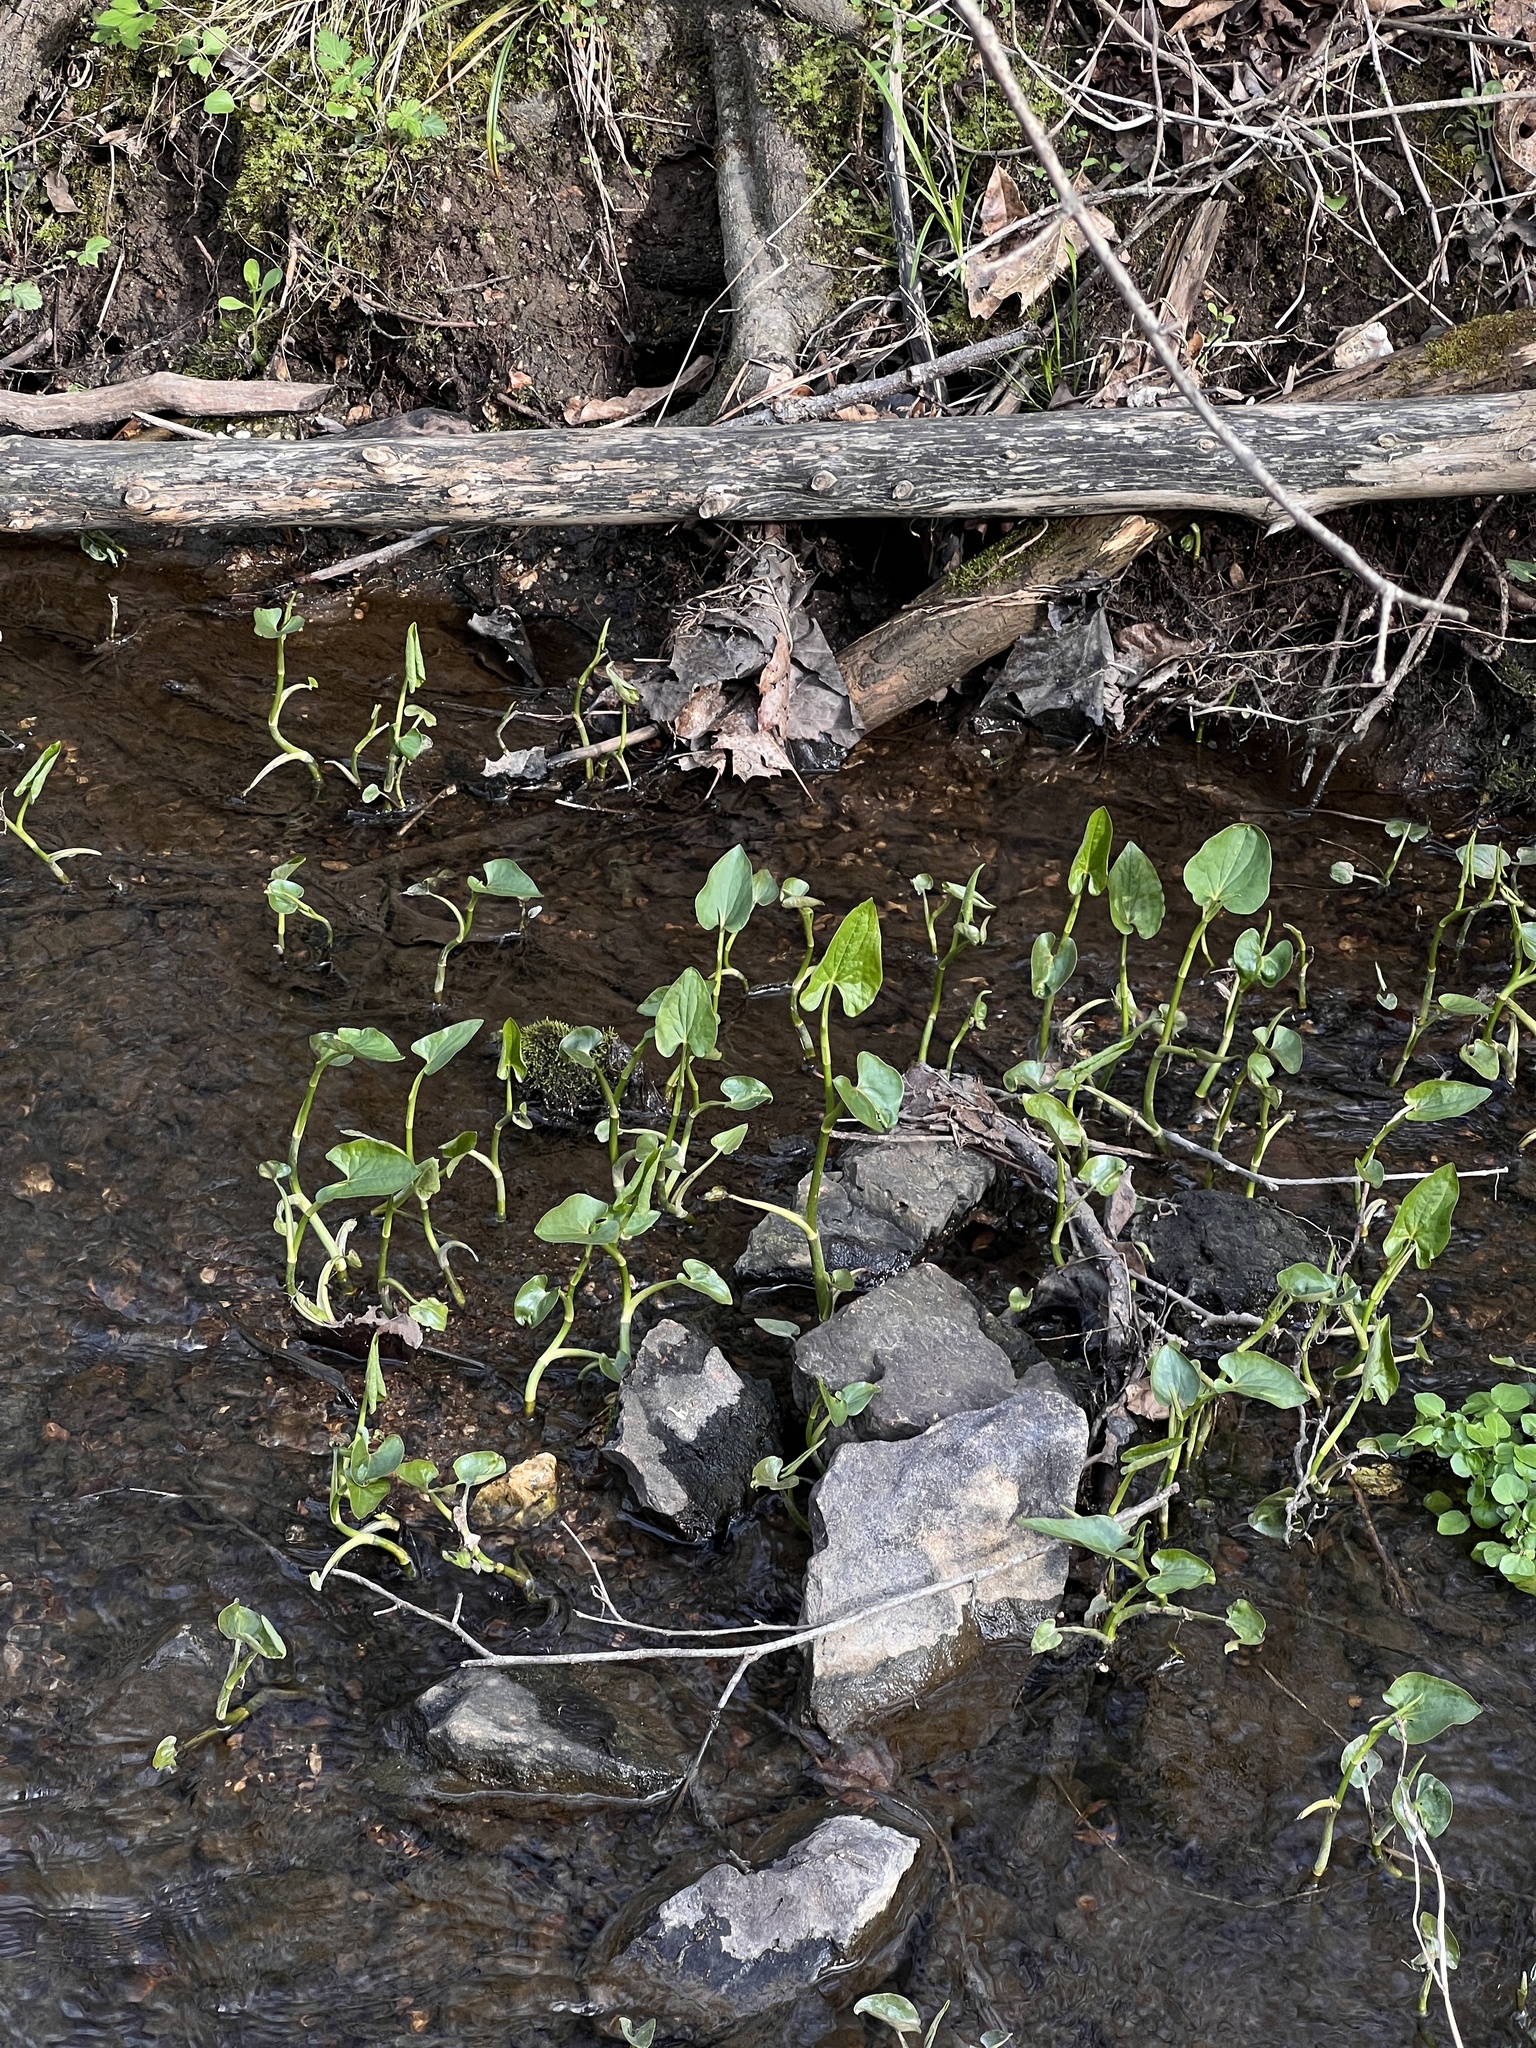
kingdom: Plantae
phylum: Tracheophyta
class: Magnoliopsida
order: Piperales
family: Saururaceae
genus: Saururus
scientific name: Saururus cernuus
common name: Lizard's-tail
